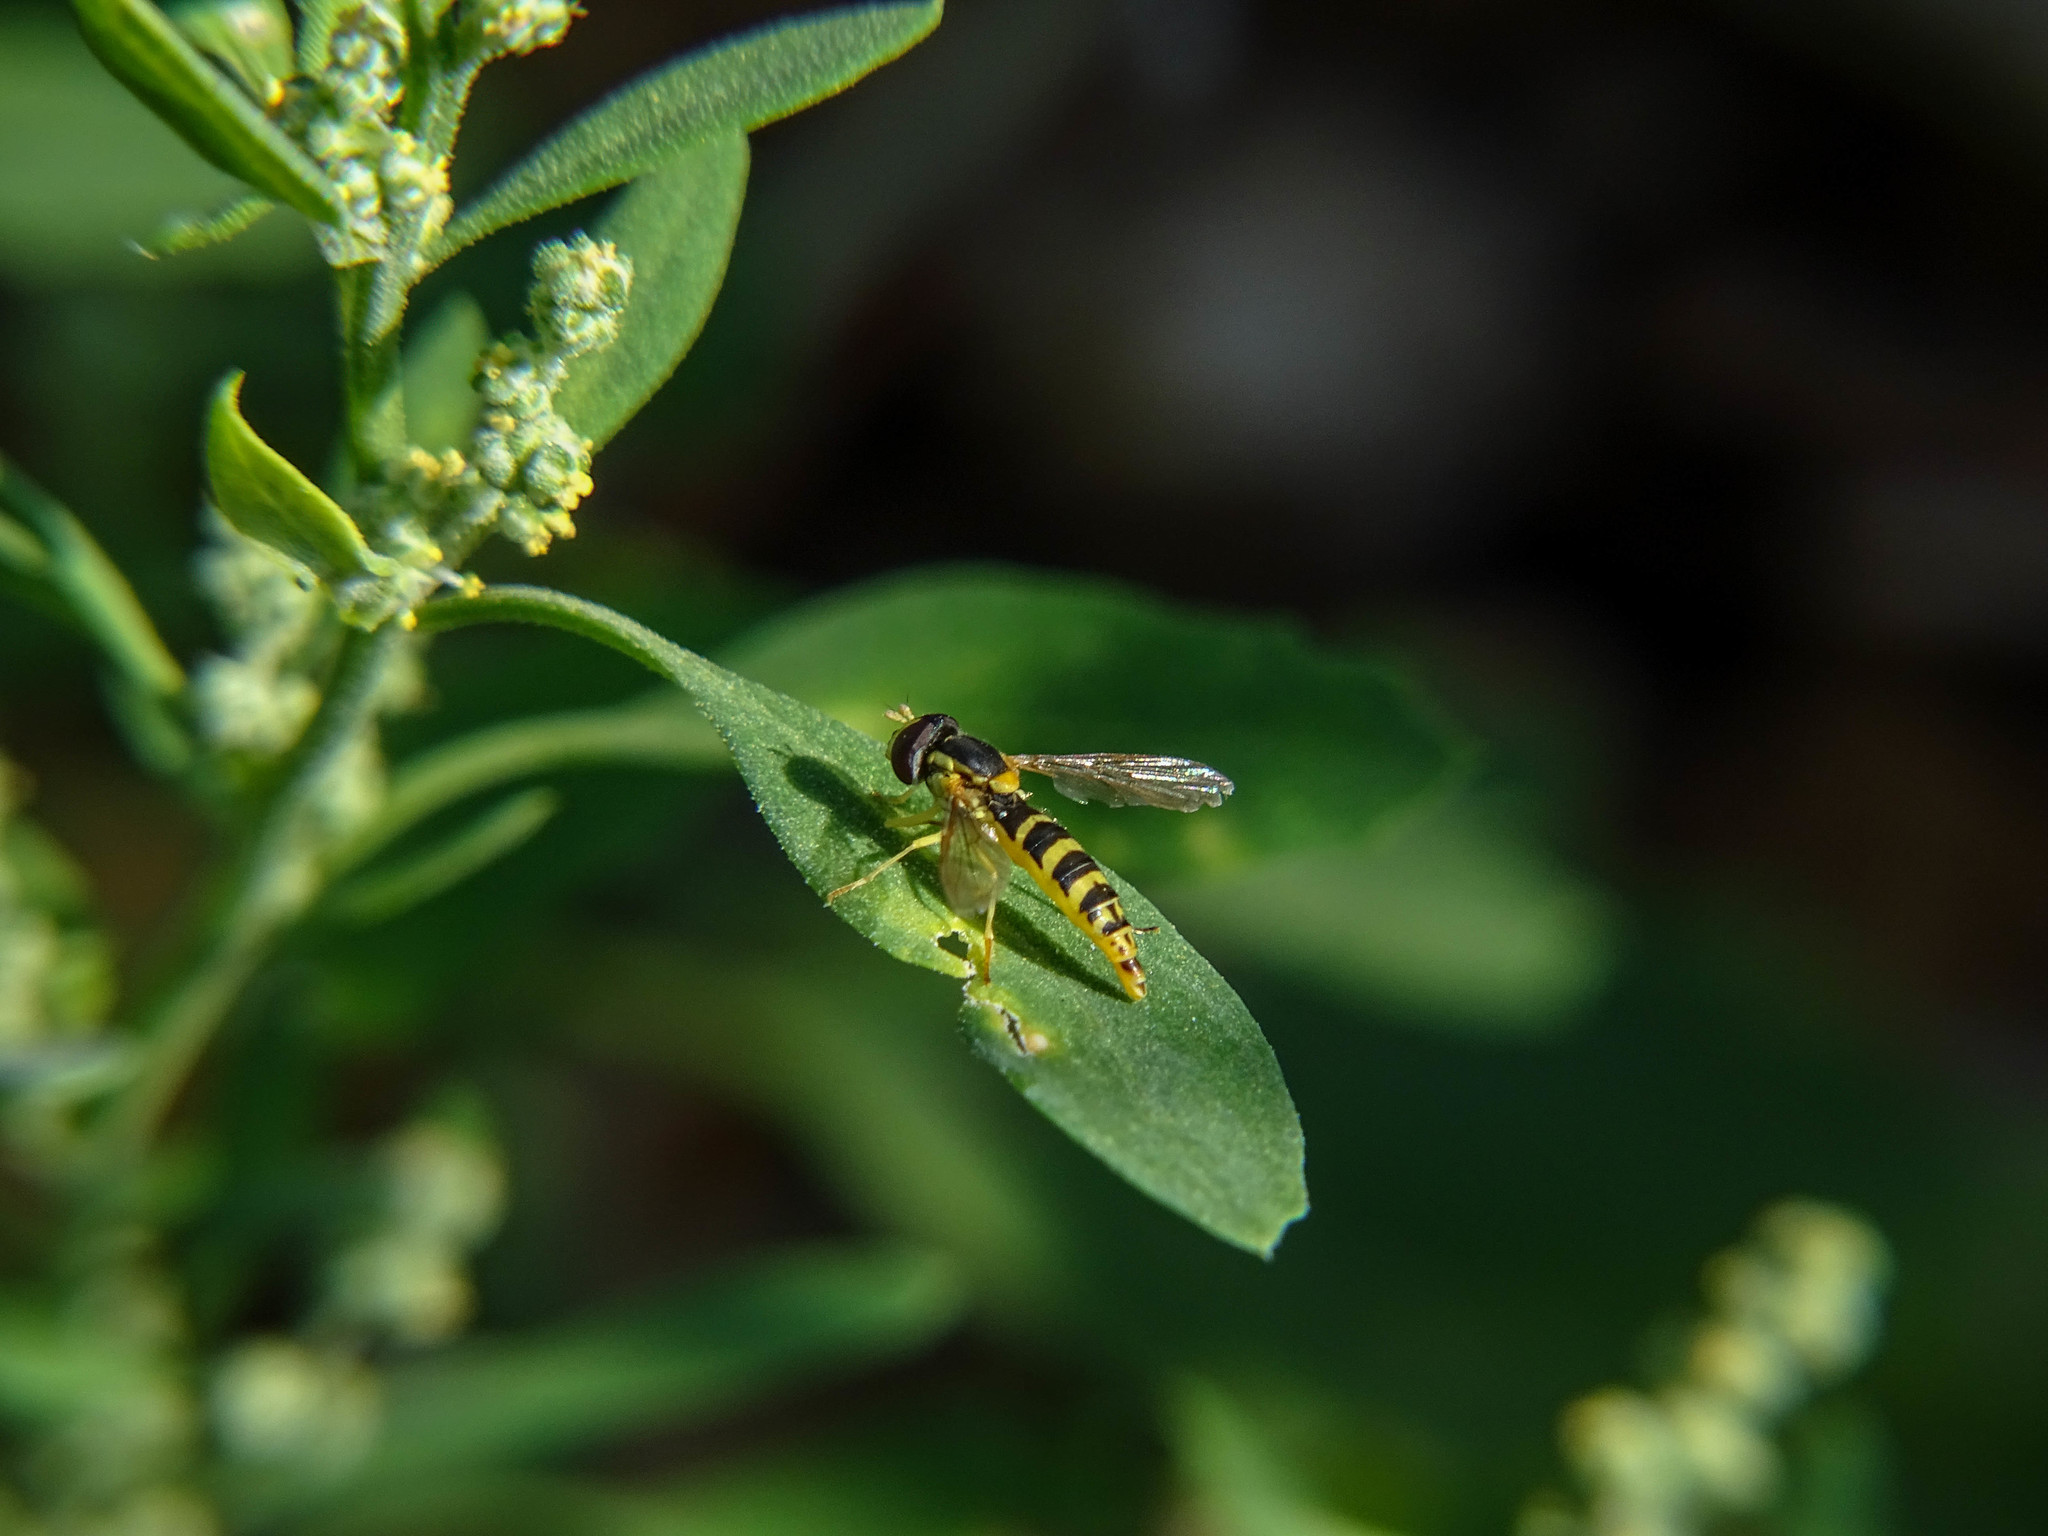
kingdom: Animalia
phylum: Arthropoda
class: Insecta
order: Diptera
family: Syrphidae
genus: Sphaerophoria
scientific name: Sphaerophoria
